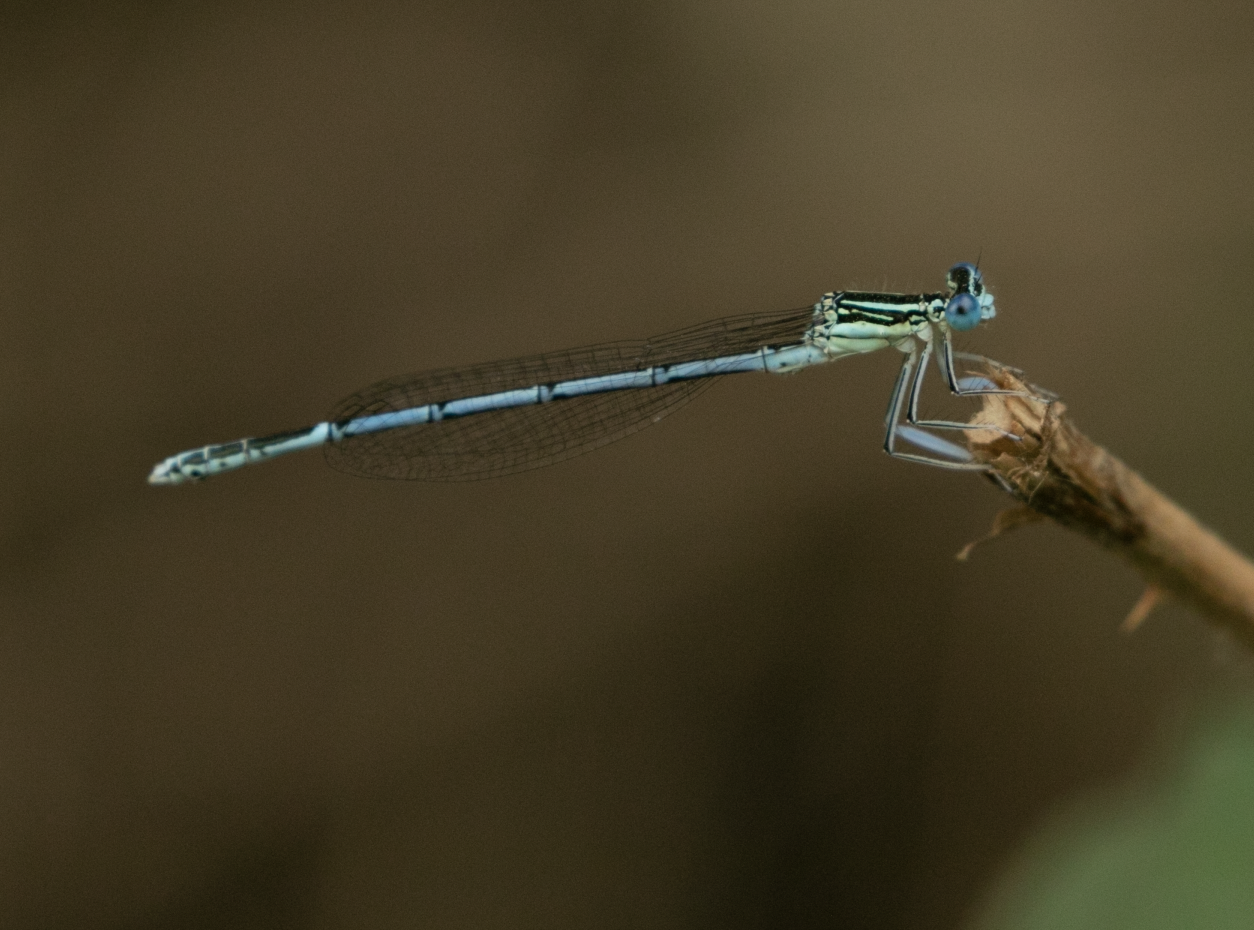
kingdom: Animalia
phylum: Arthropoda
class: Insecta
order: Odonata
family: Platycnemididae
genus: Platycnemis
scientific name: Platycnemis pennipes
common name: White-legged damselfly
